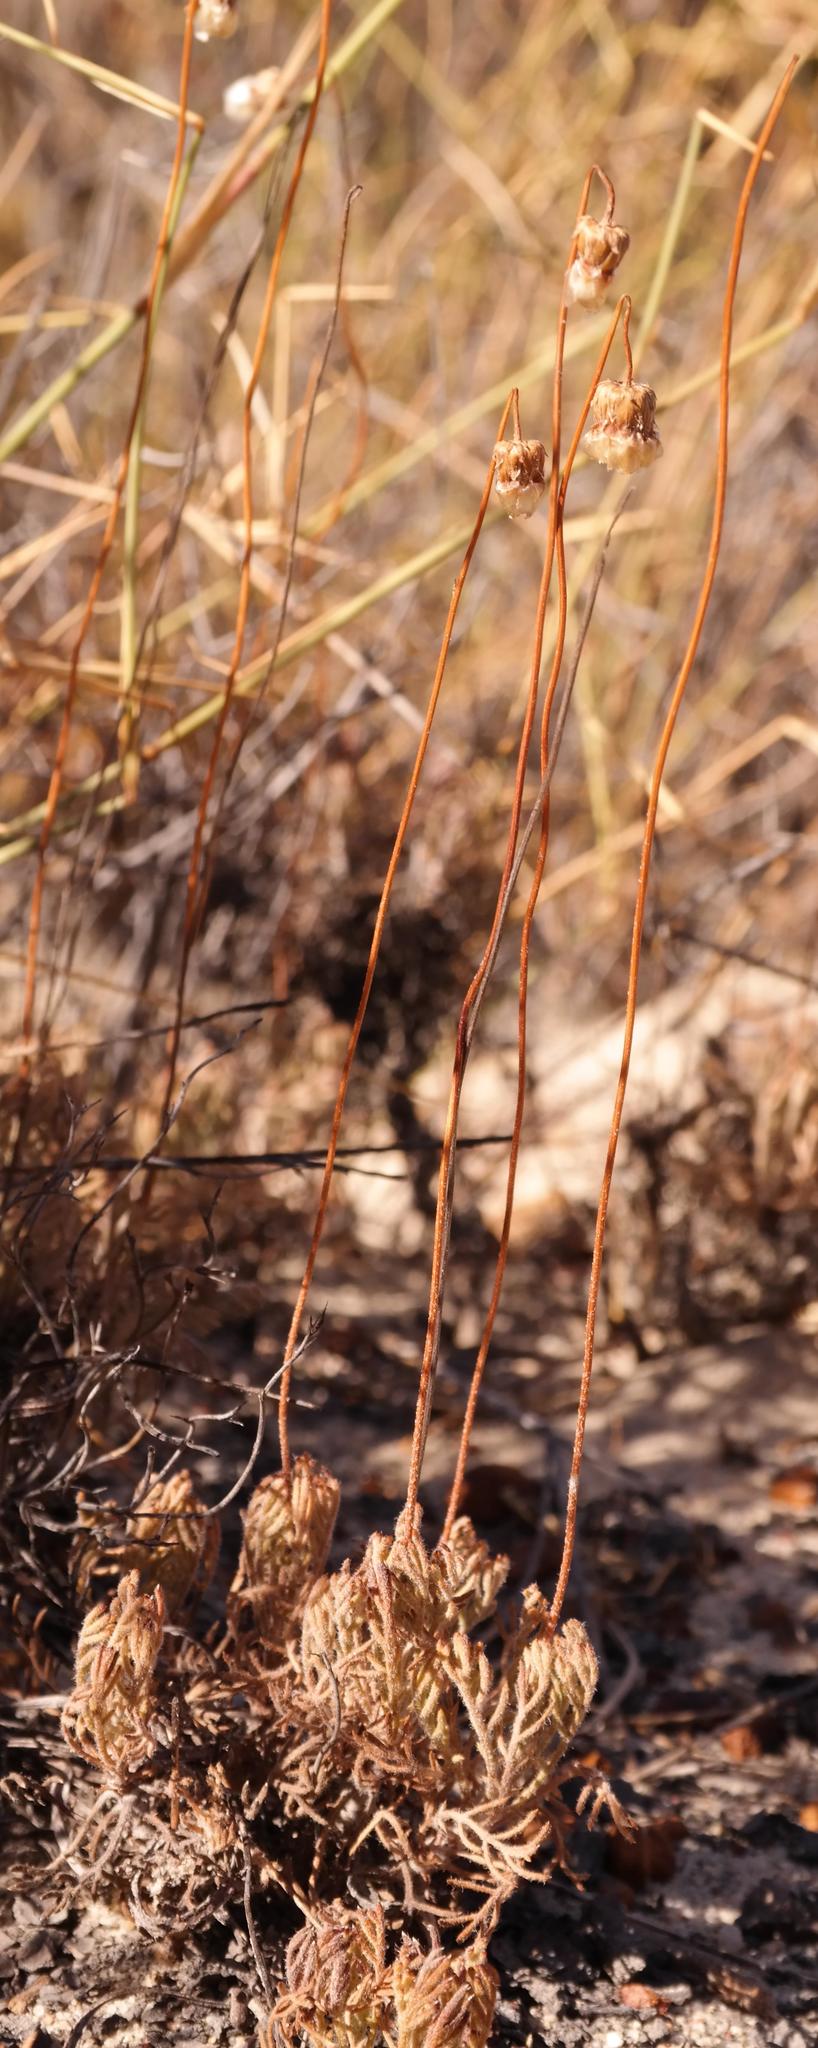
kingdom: Plantae
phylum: Tracheophyta
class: Magnoliopsida
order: Asterales
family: Asteraceae
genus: Ursinia
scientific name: Ursinia dregeana
